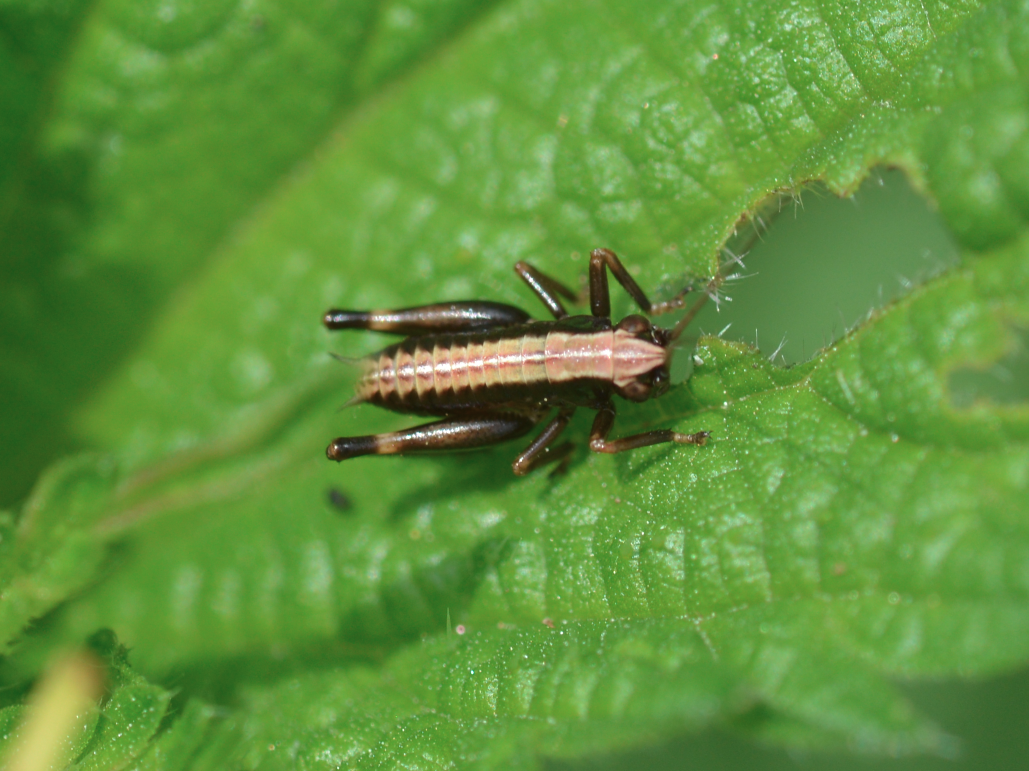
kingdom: Animalia
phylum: Arthropoda
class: Insecta
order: Orthoptera
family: Tettigoniidae
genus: Pholidoptera
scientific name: Pholidoptera griseoaptera
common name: Dark bush-cricket
